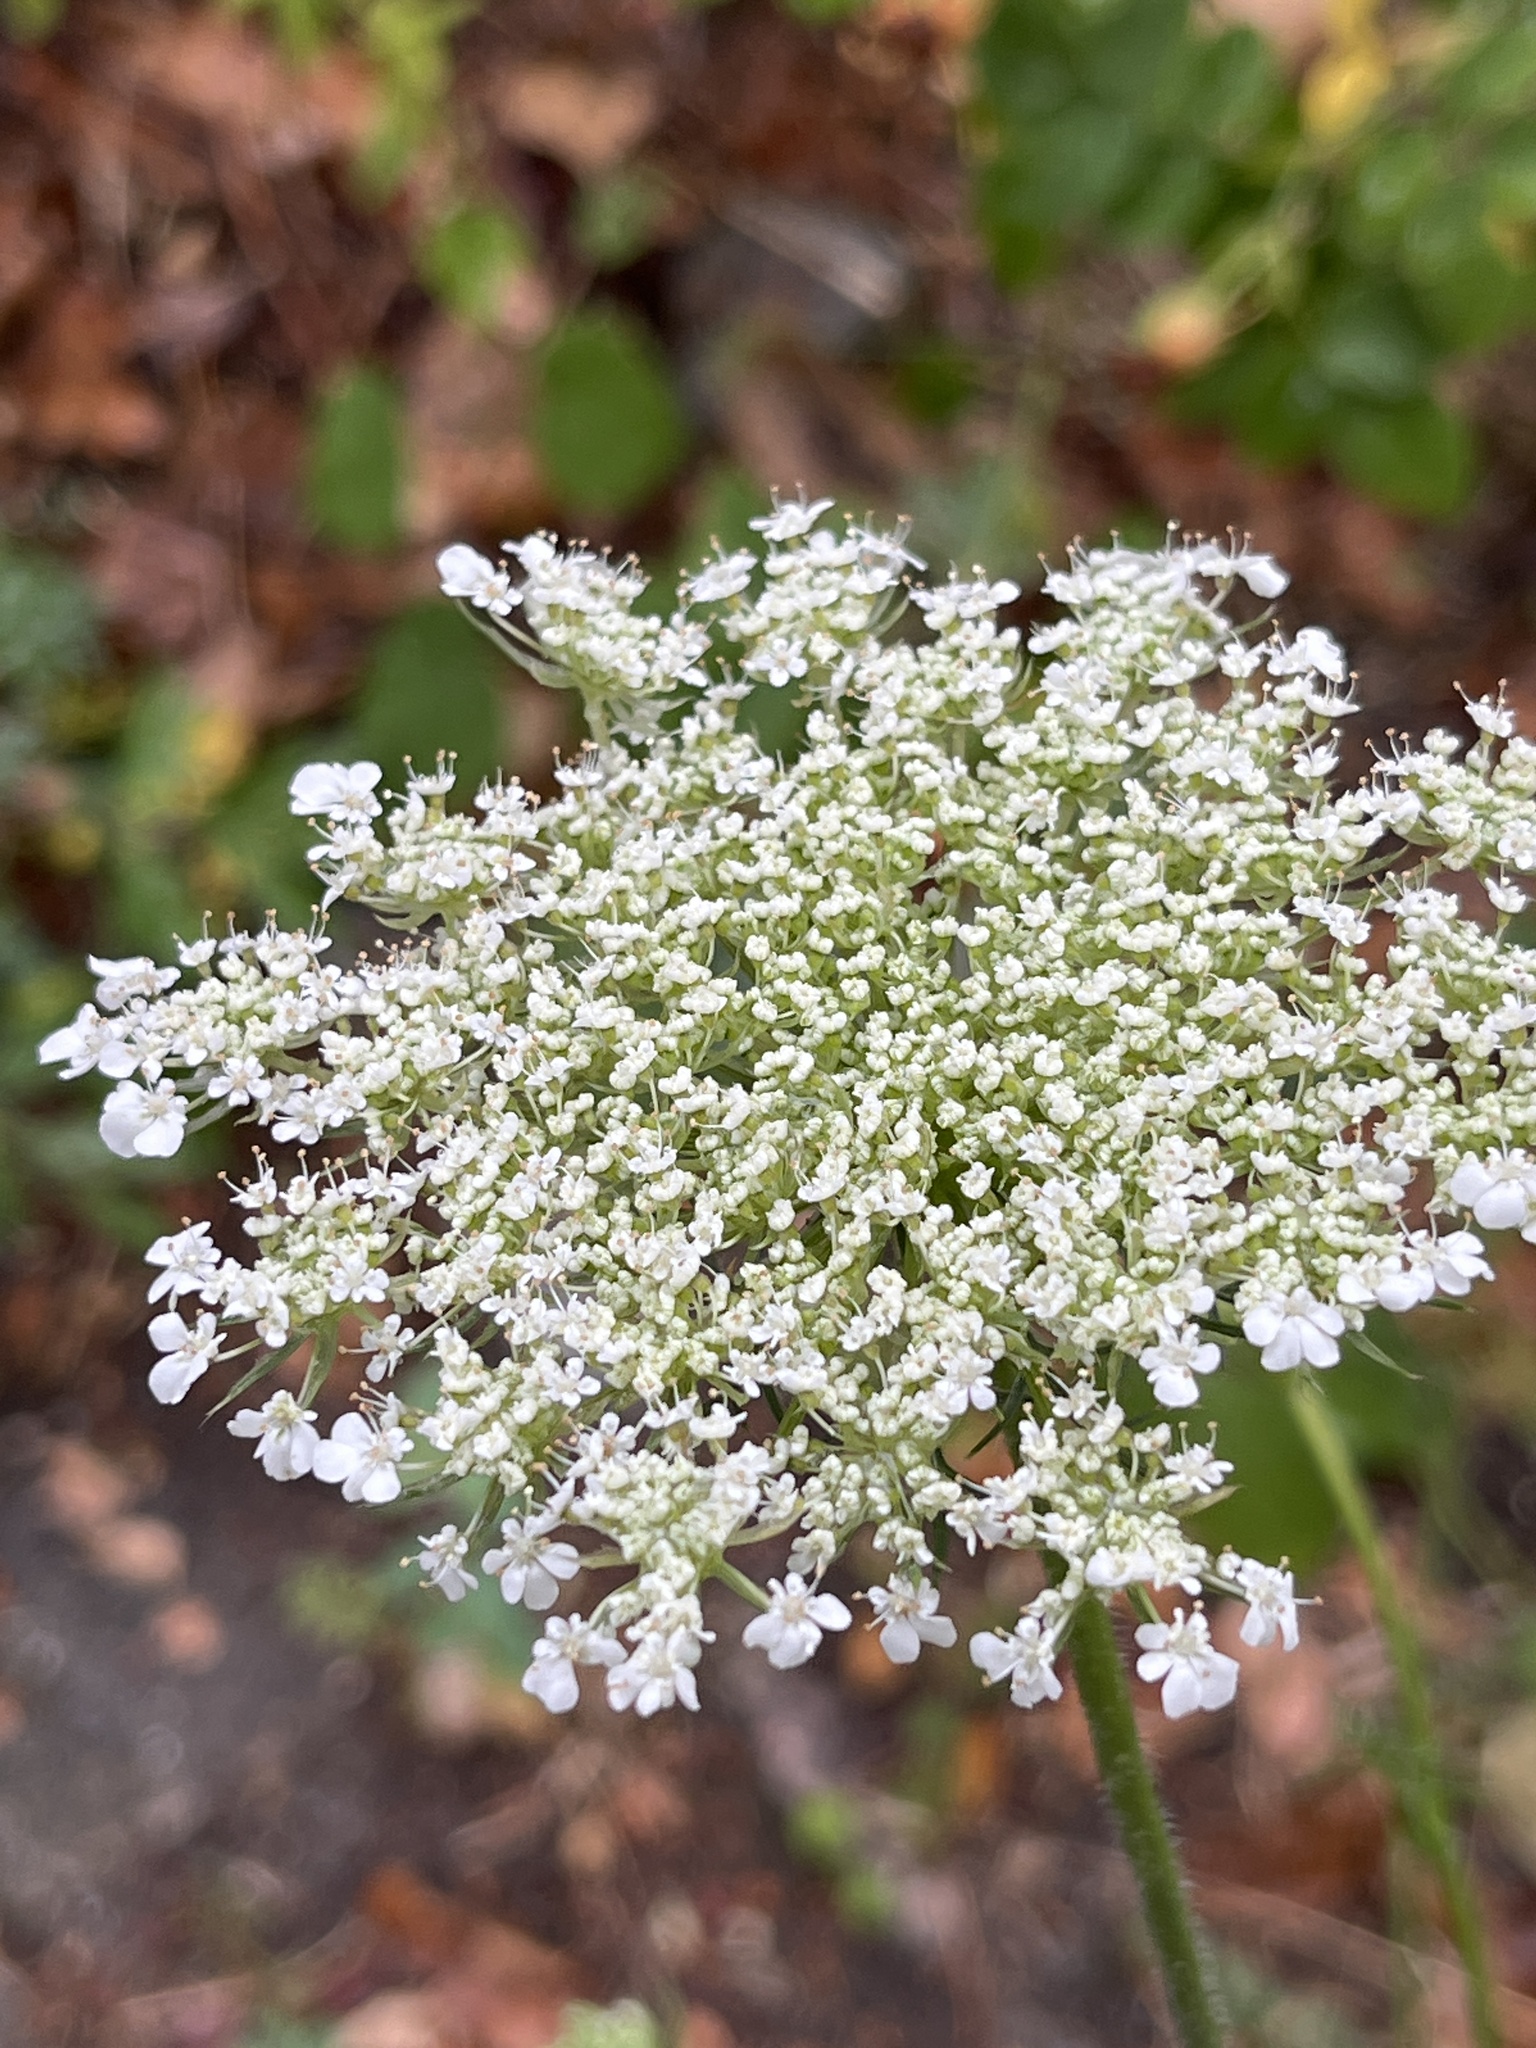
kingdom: Plantae
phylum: Tracheophyta
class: Magnoliopsida
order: Apiales
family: Apiaceae
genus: Daucus
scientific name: Daucus carota
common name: Wild carrot
